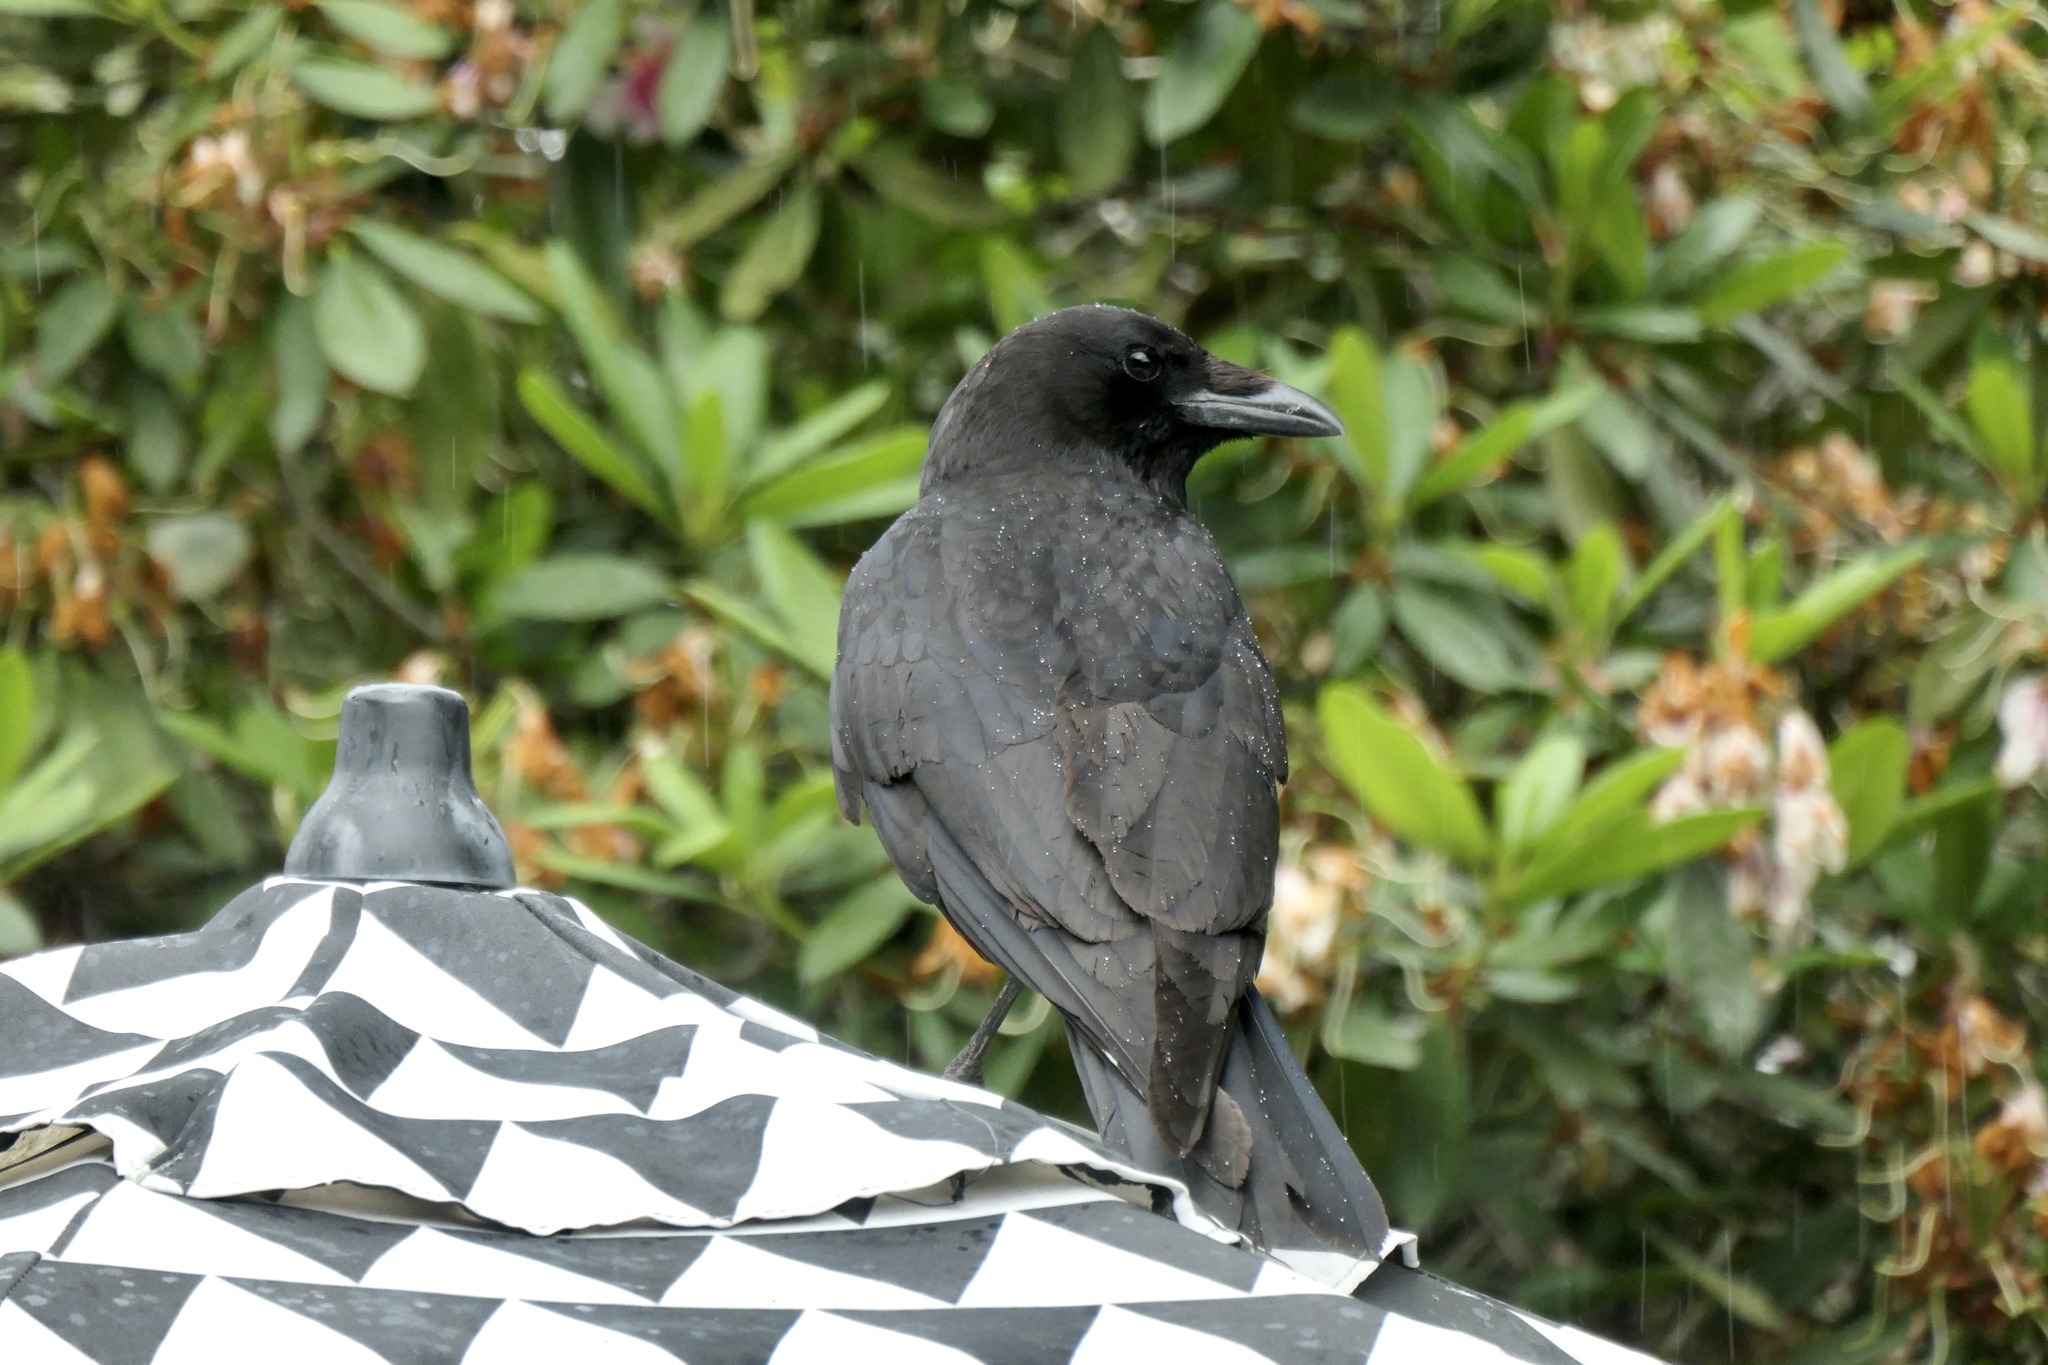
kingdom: Animalia
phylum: Chordata
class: Aves
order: Passeriformes
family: Corvidae
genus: Corvus
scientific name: Corvus brachyrhynchos
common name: American crow
